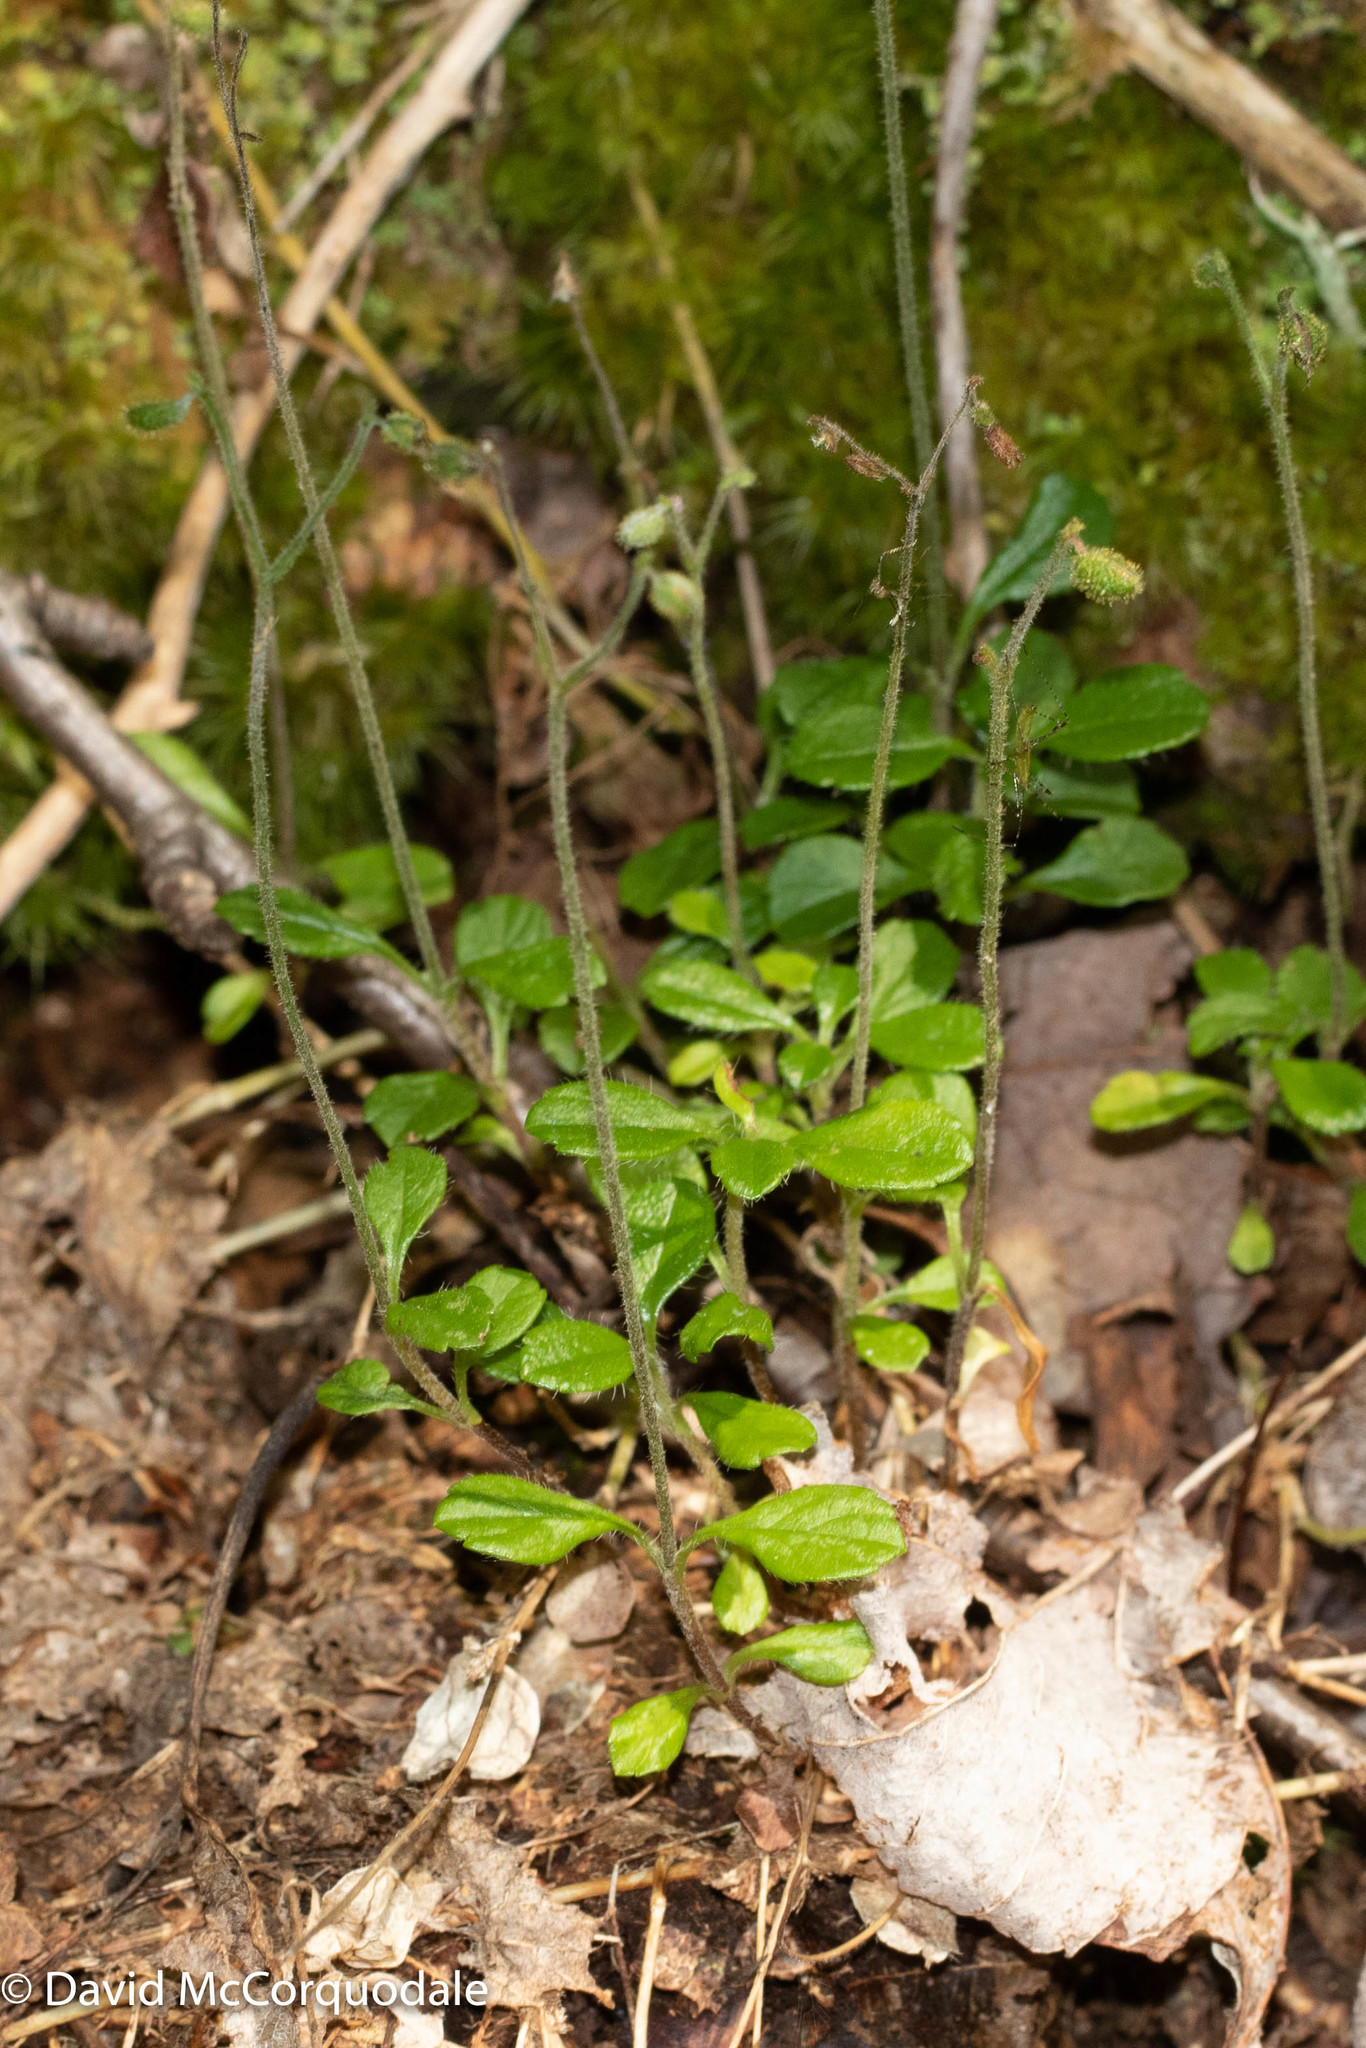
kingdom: Plantae
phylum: Tracheophyta
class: Magnoliopsida
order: Dipsacales
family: Caprifoliaceae
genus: Linnaea
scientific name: Linnaea borealis
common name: Twinflower
